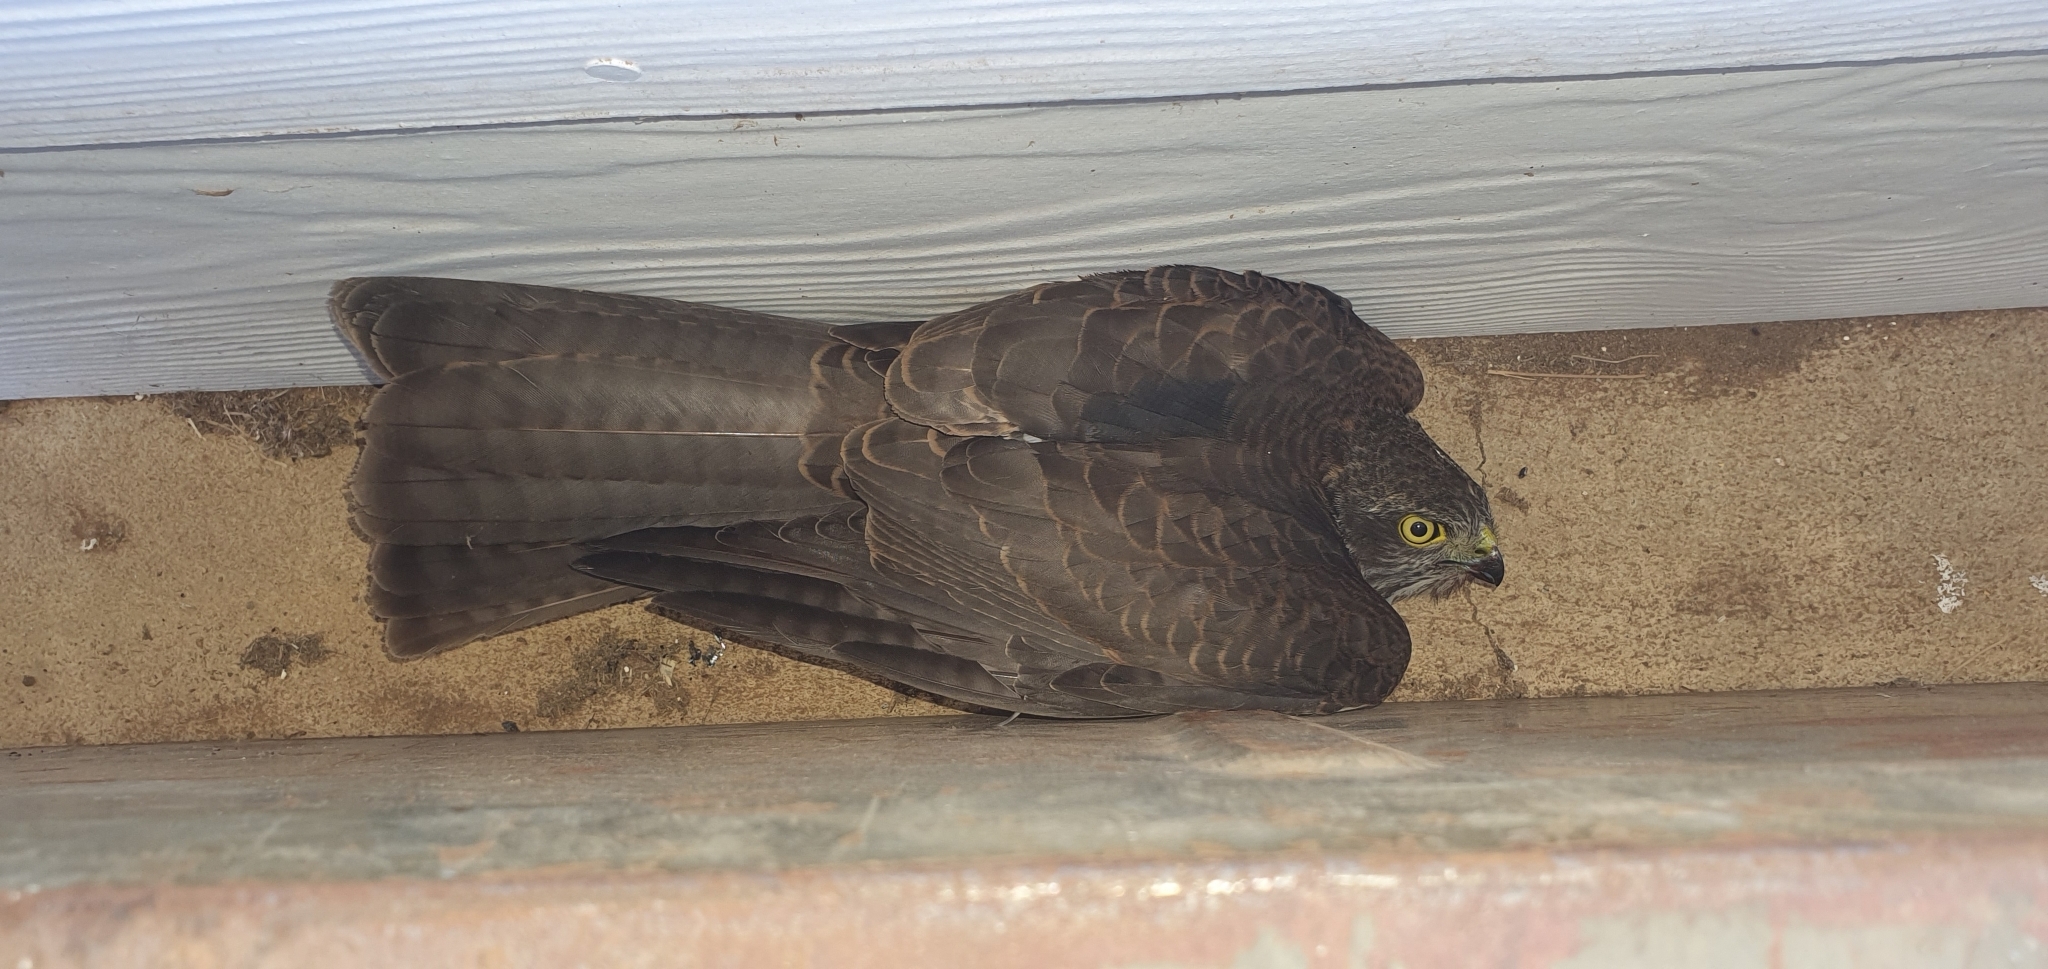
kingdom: Animalia
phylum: Chordata
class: Aves
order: Accipitriformes
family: Accipitridae
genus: Accipiter
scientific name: Accipiter cirrocephalus
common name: Collared sparrowhawk
